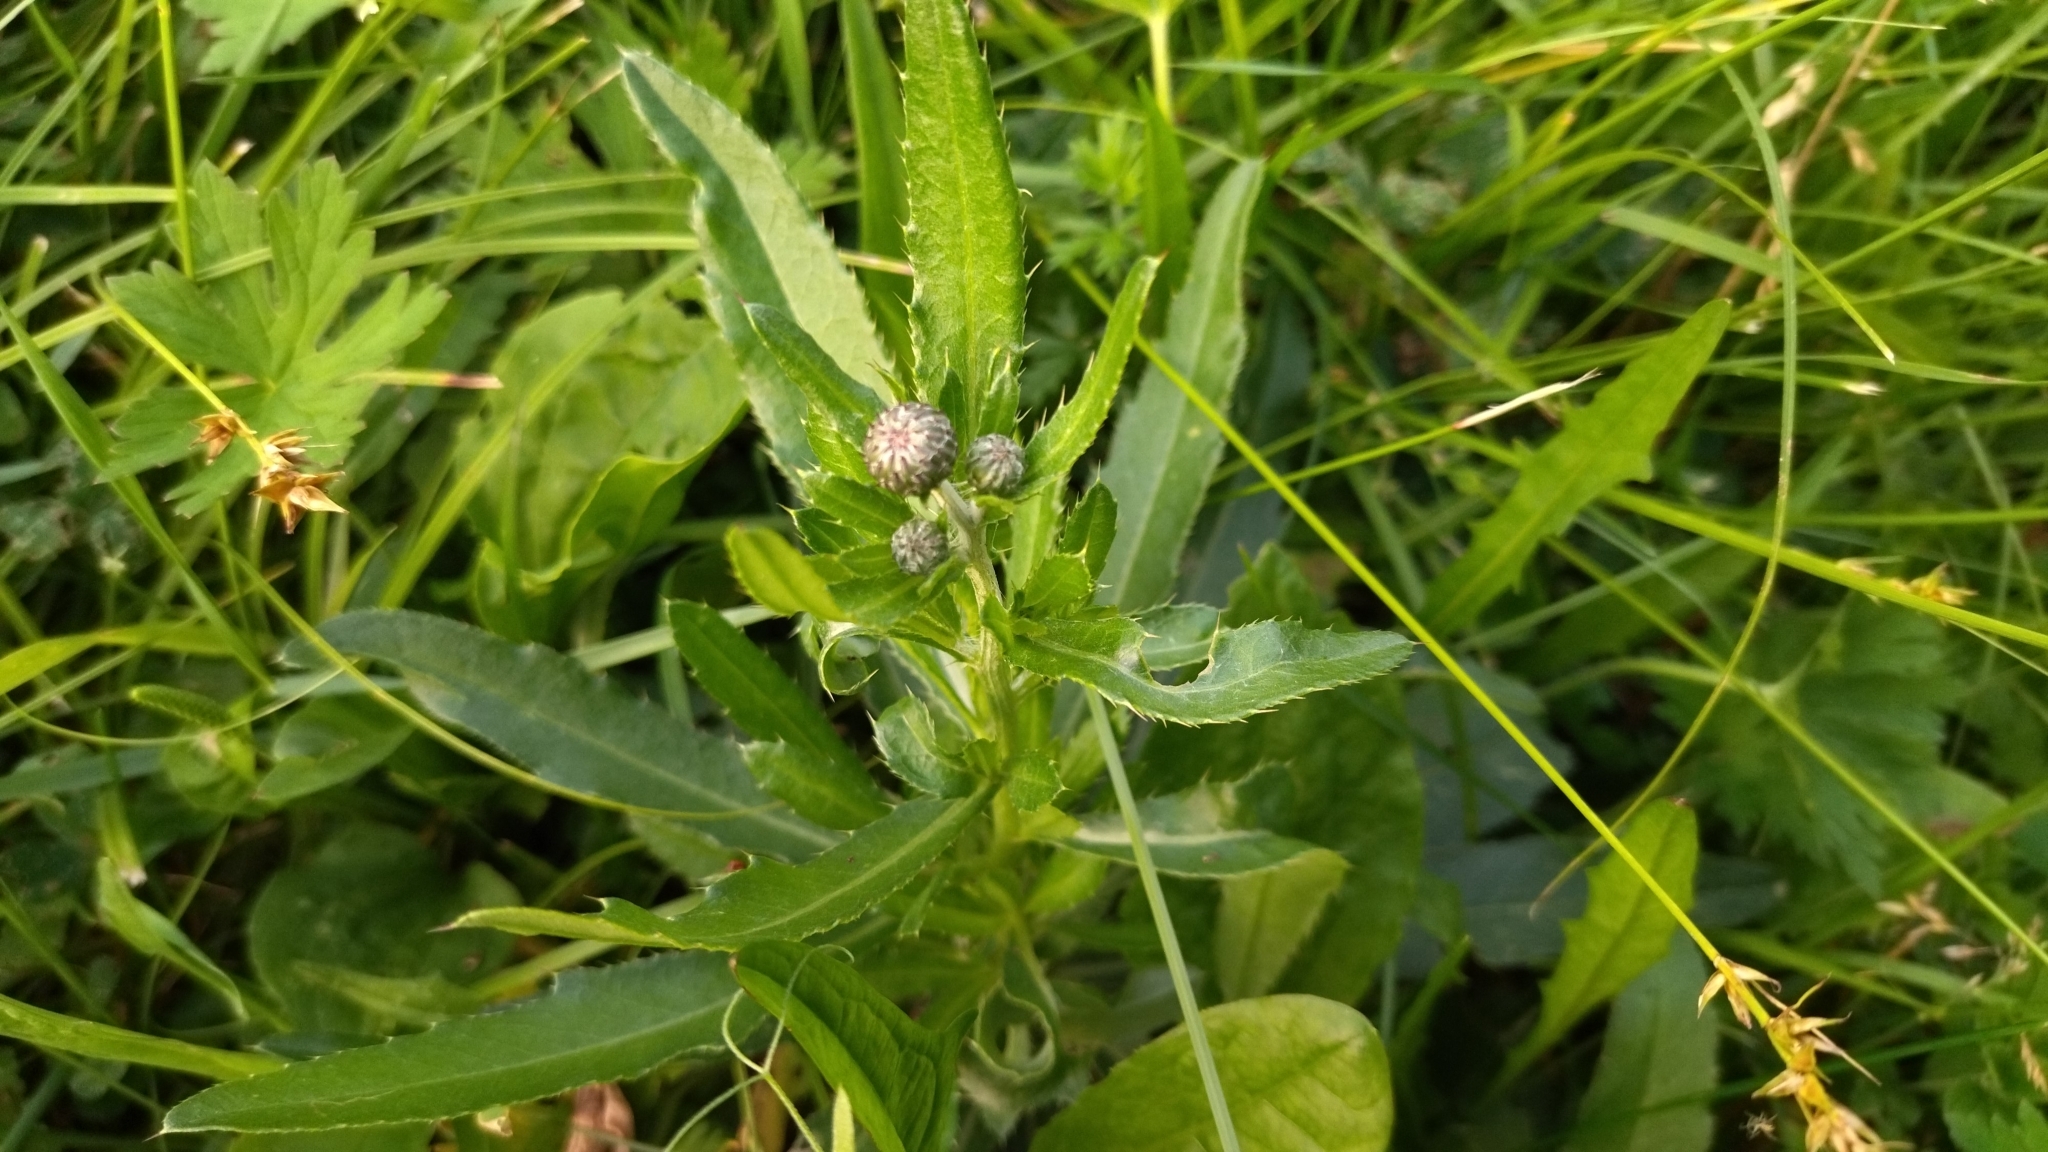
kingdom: Plantae
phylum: Tracheophyta
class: Magnoliopsida
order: Asterales
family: Asteraceae
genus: Cirsium
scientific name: Cirsium arvense
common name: Creeping thistle
